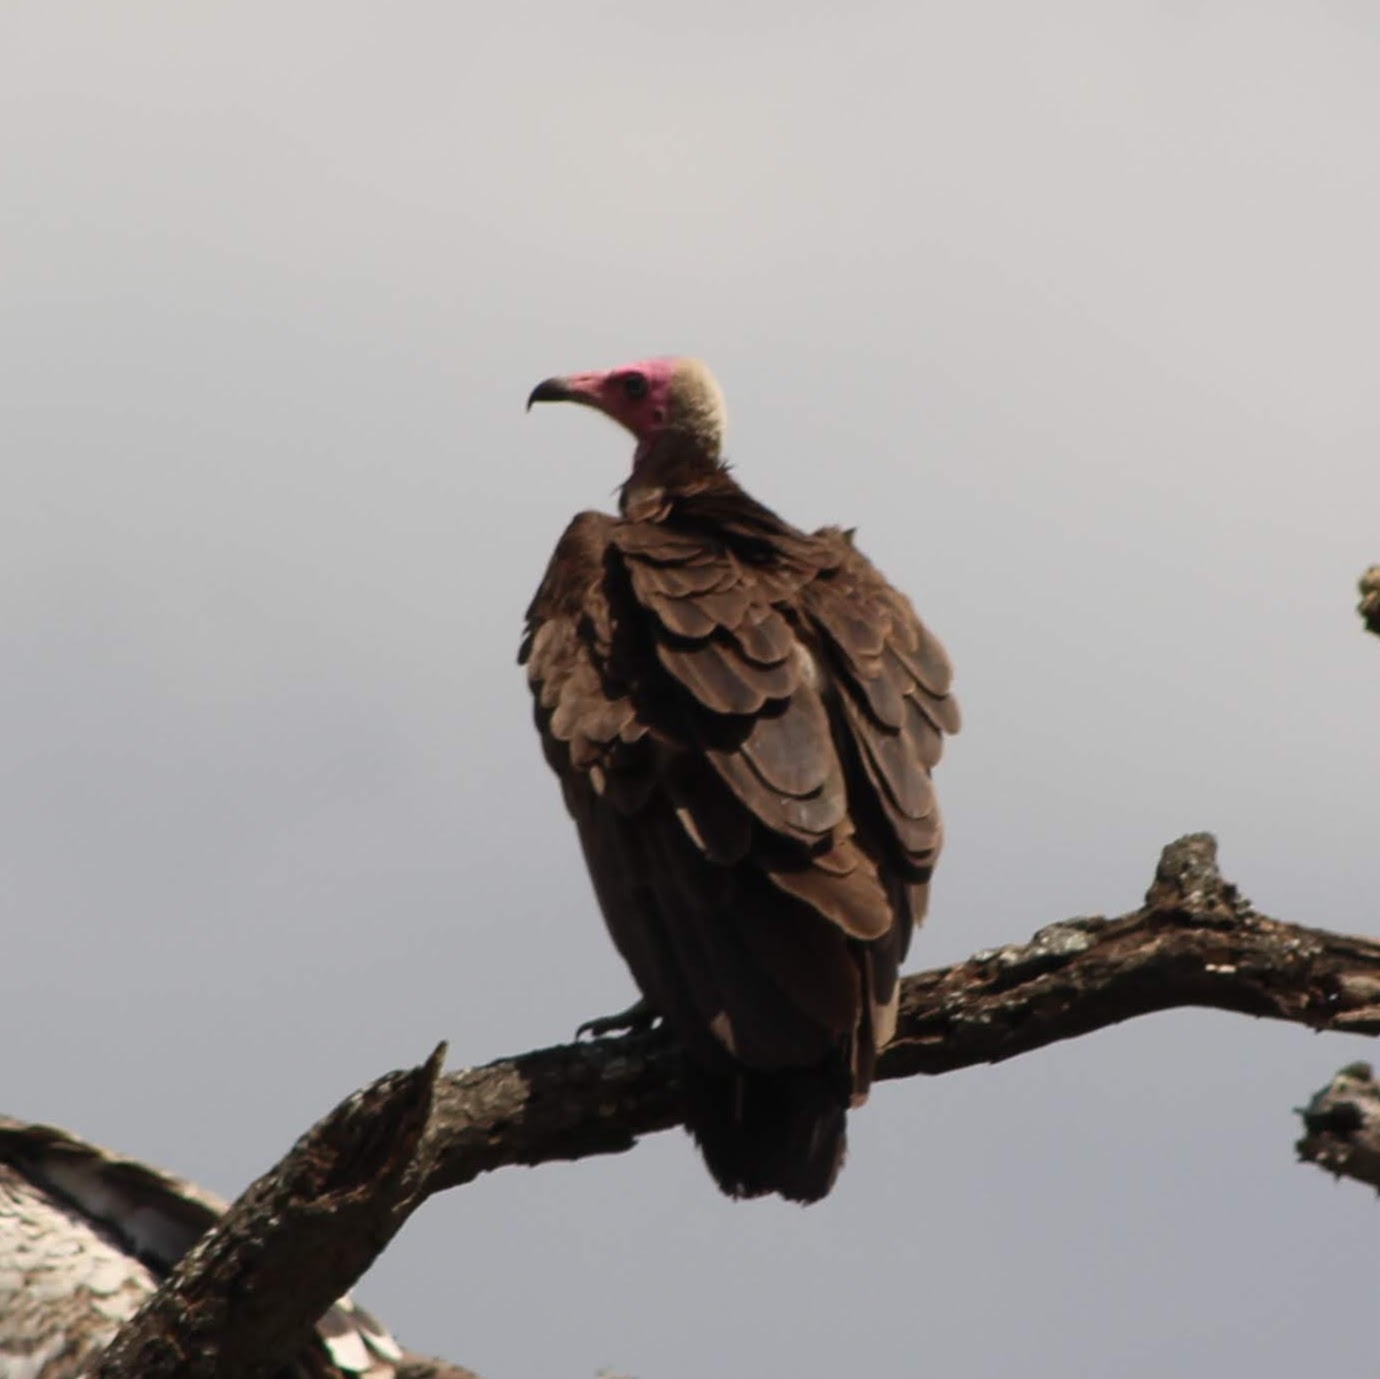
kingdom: Animalia
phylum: Chordata
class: Aves
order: Accipitriformes
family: Accipitridae
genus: Necrosyrtes
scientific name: Necrosyrtes monachus
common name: Hooded vulture
